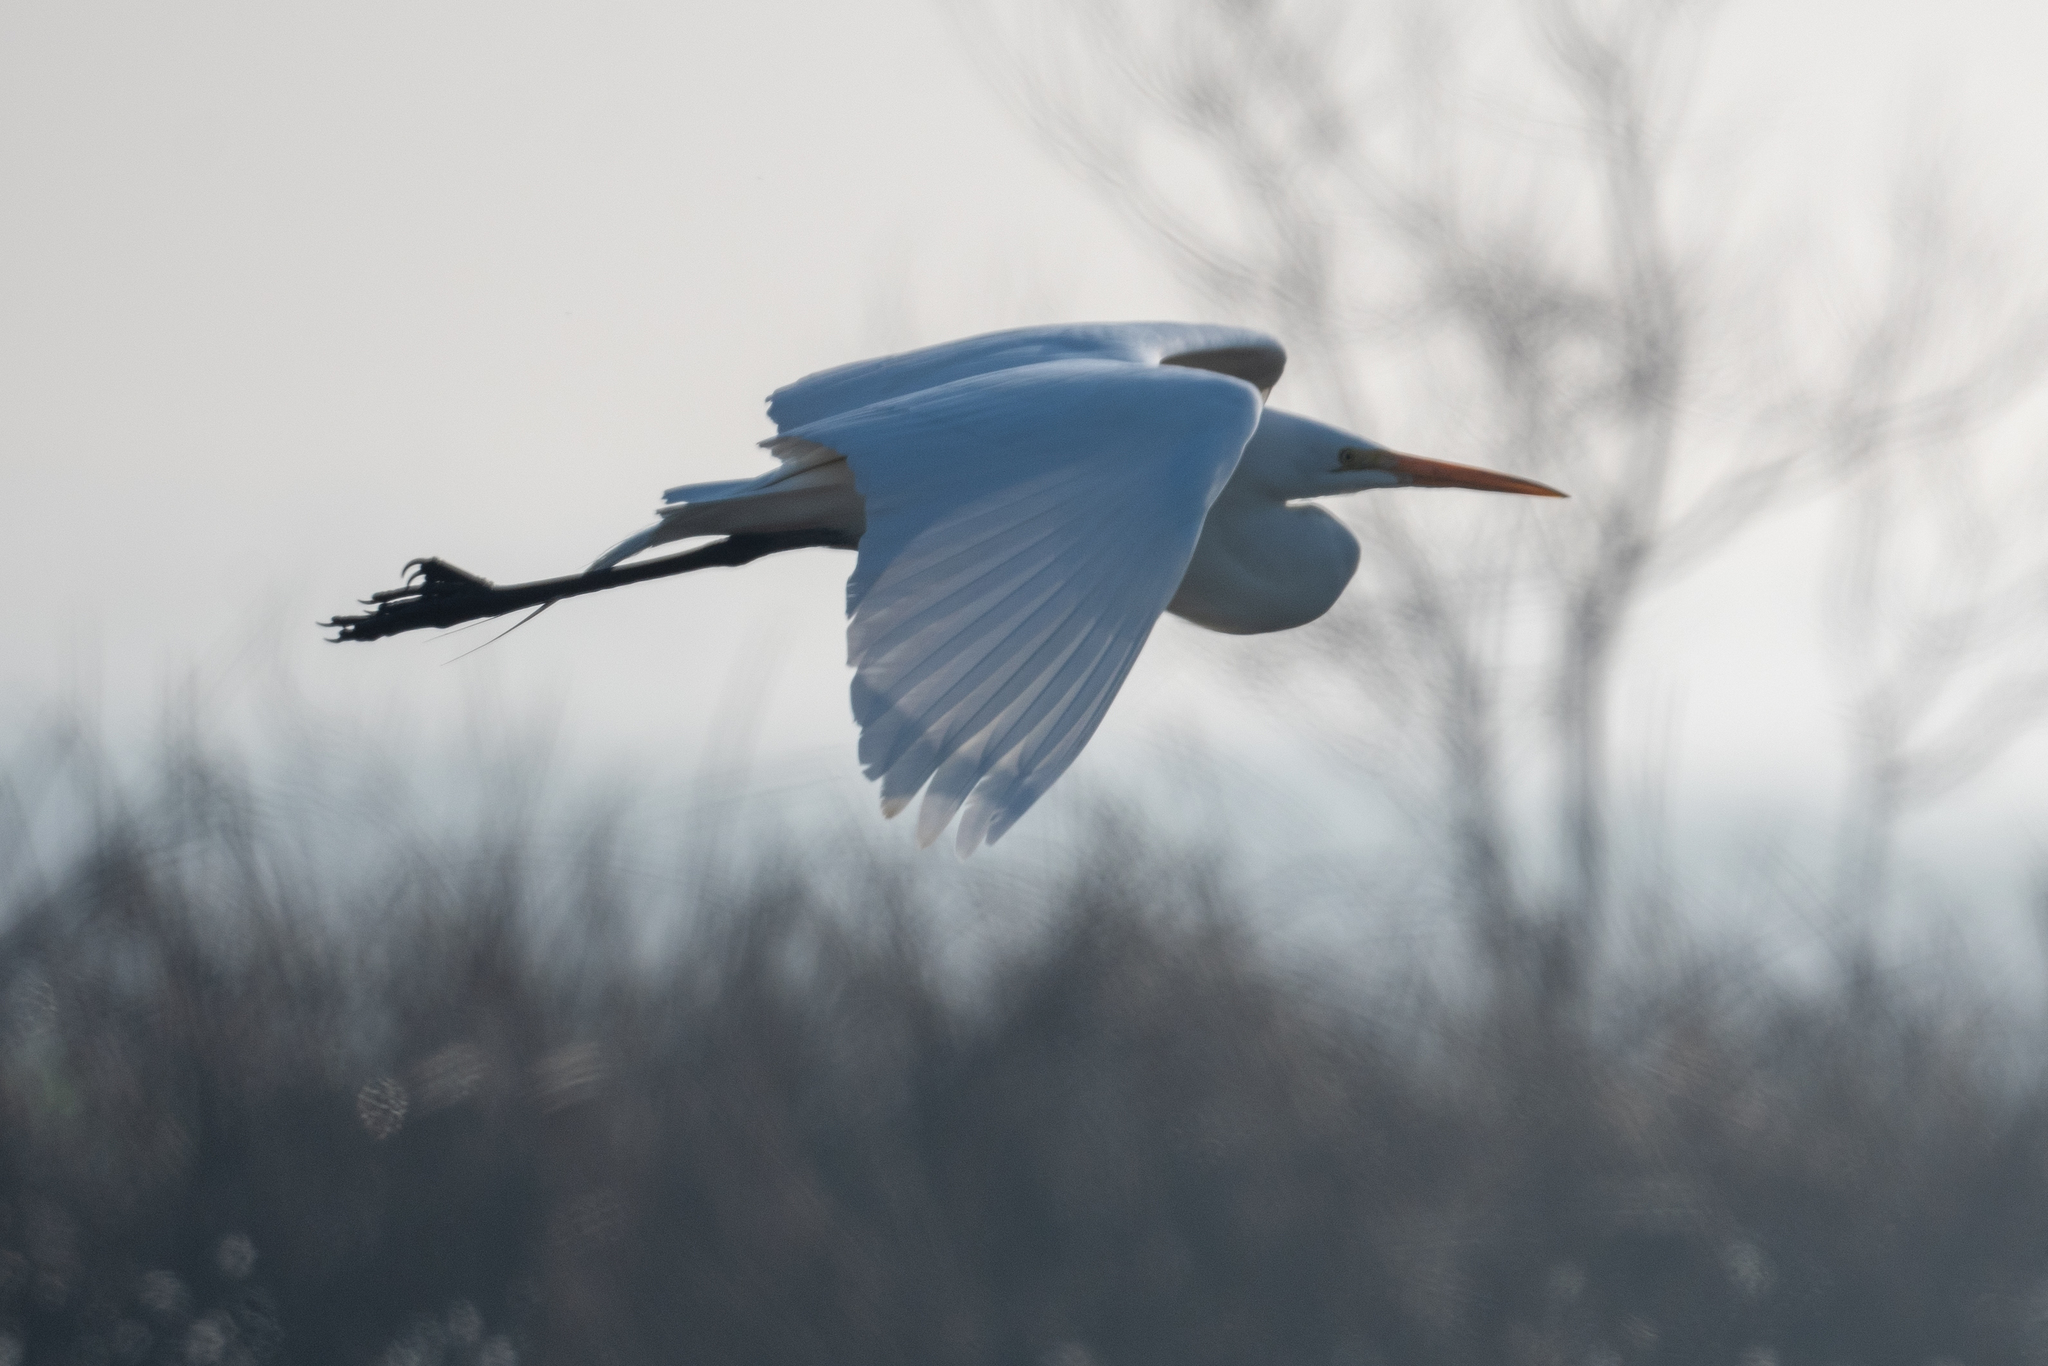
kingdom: Animalia
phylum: Chordata
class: Aves
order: Pelecaniformes
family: Ardeidae
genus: Ardea
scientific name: Ardea alba
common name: Great egret
